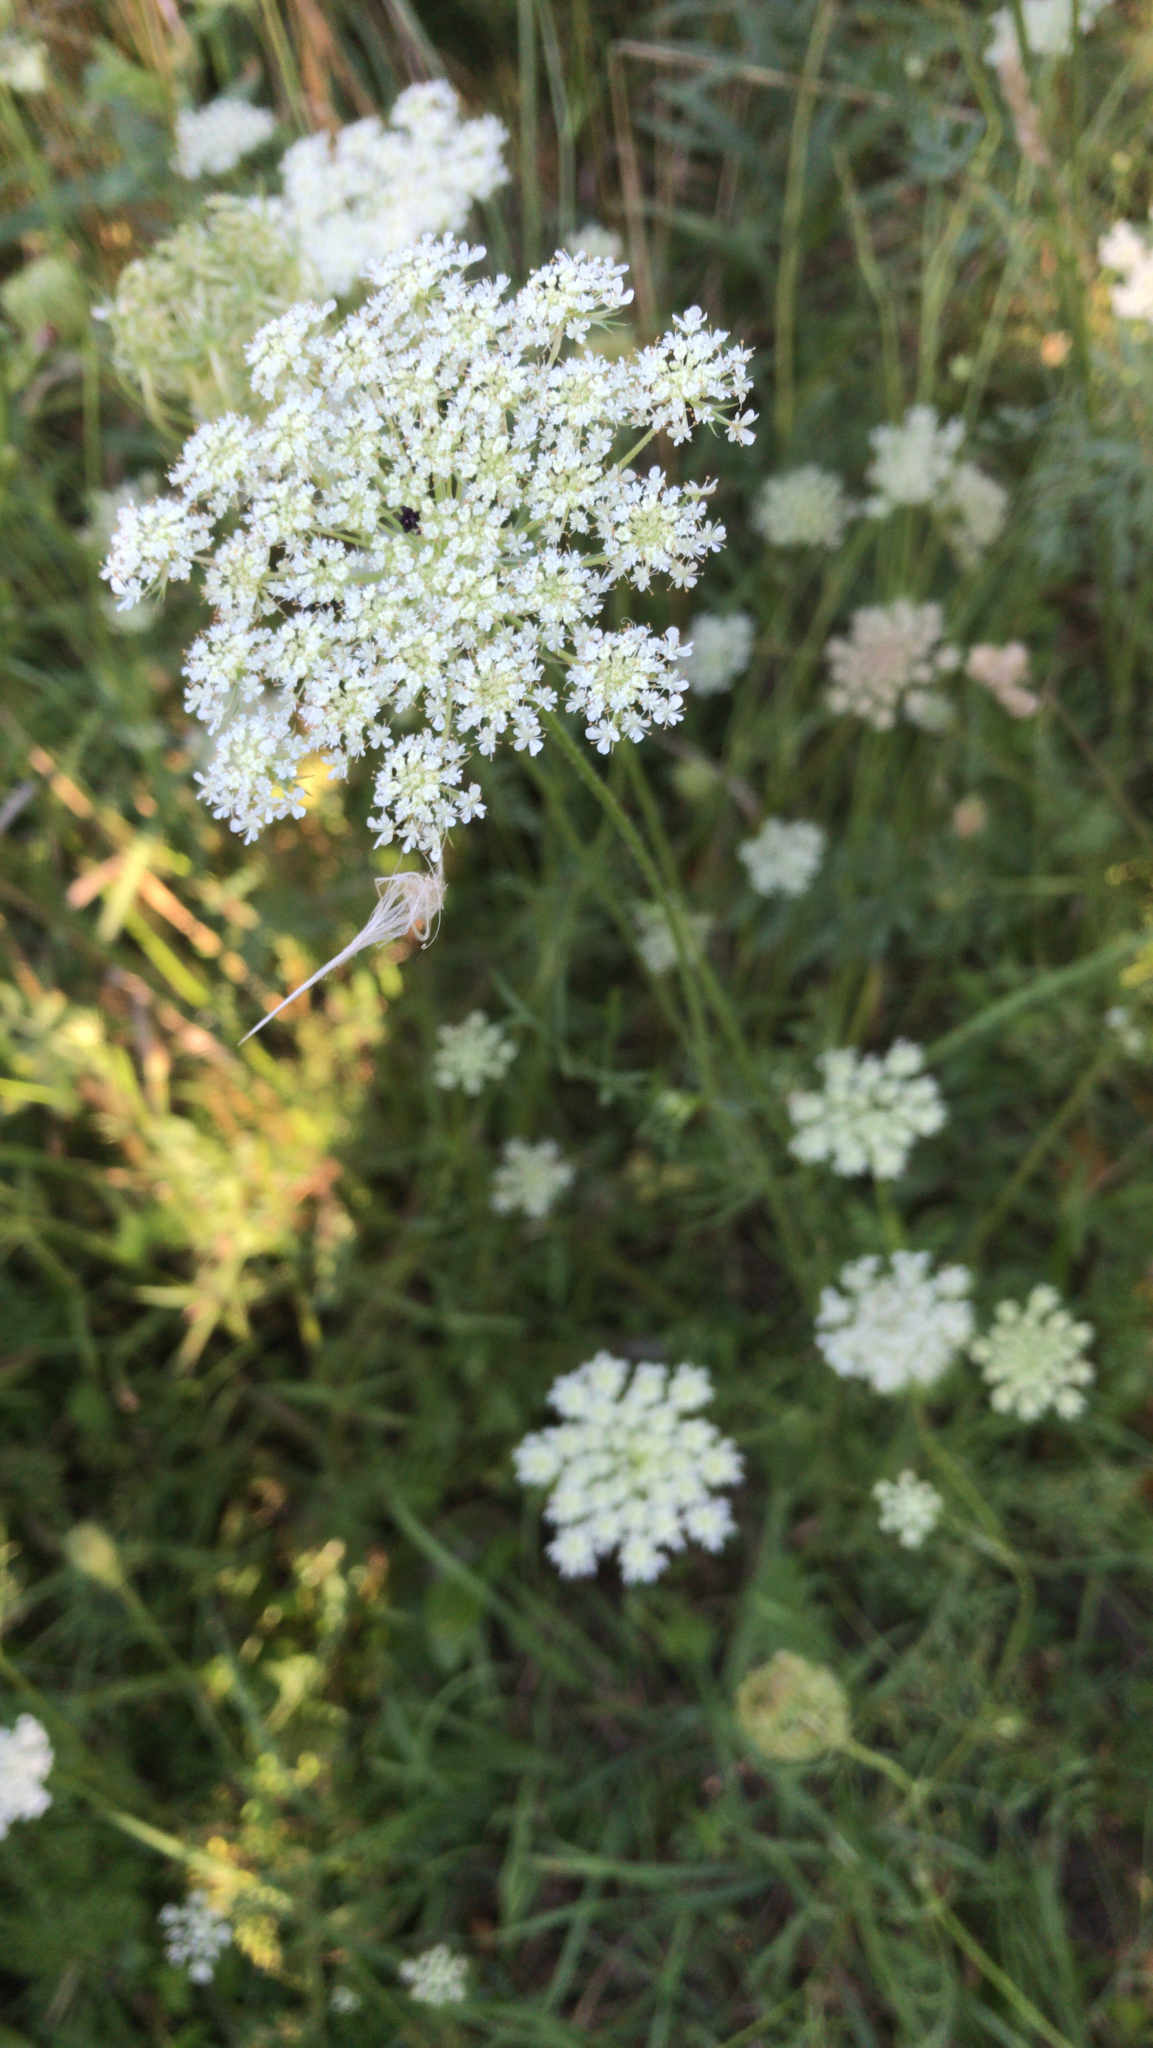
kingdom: Plantae
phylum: Tracheophyta
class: Magnoliopsida
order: Apiales
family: Apiaceae
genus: Daucus
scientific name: Daucus carota
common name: Wild carrot
